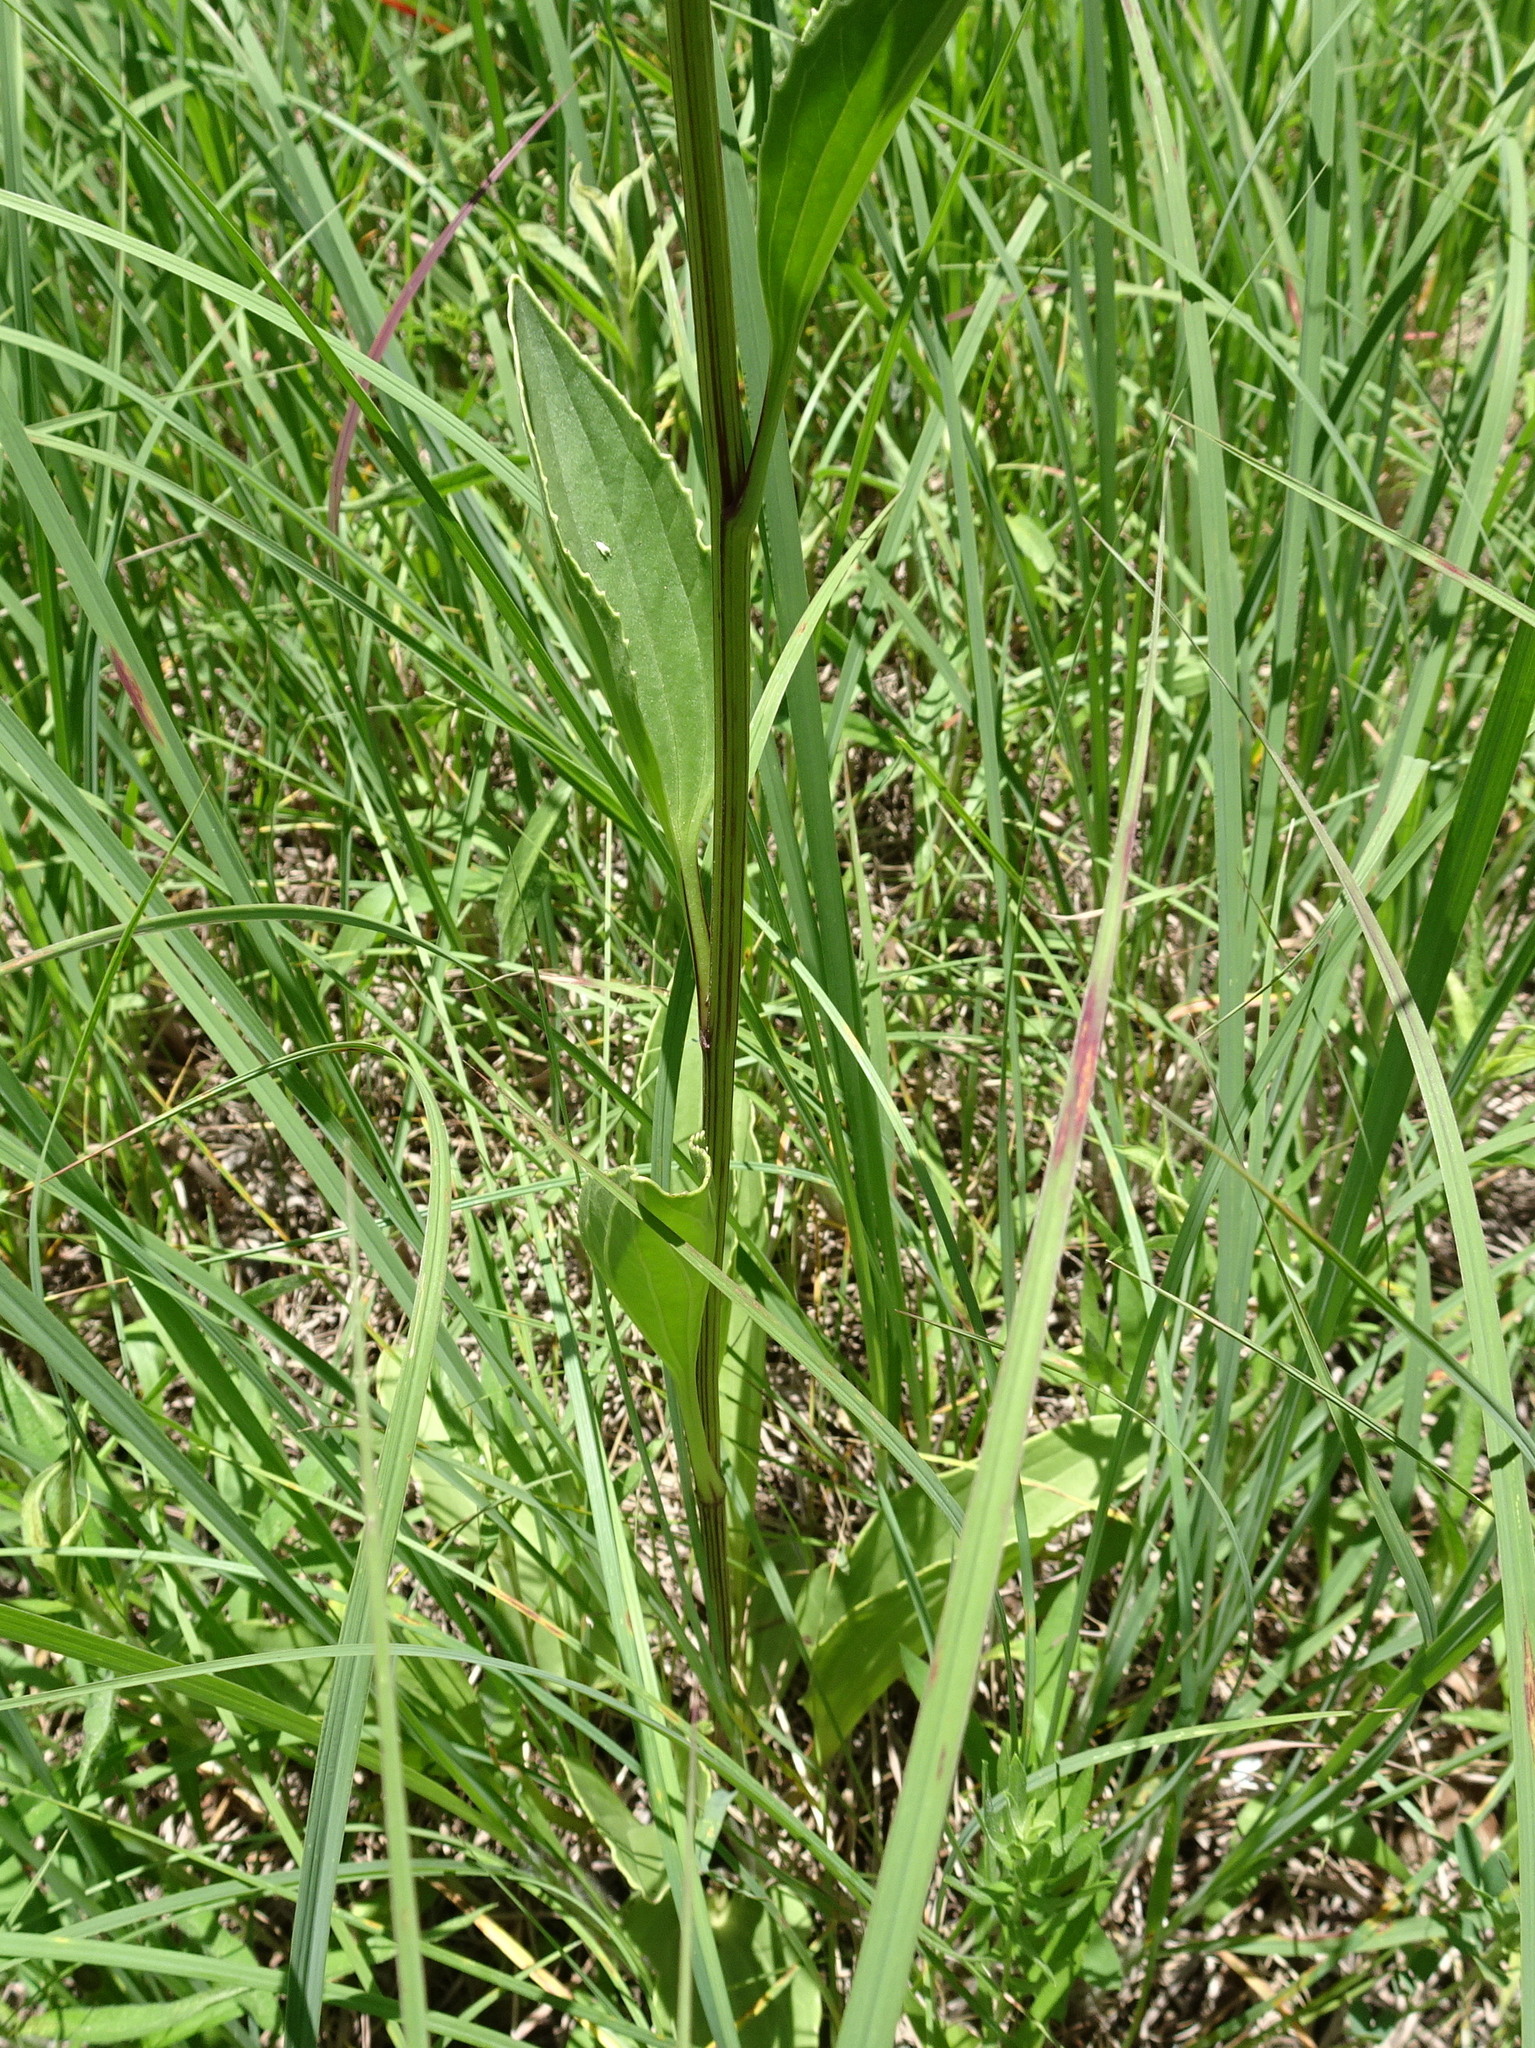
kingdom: Plantae
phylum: Tracheophyta
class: Magnoliopsida
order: Asterales
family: Asteraceae
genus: Arnoglossum
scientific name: Arnoglossum plantagineum
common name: Groove-stemmed indian-plantain
